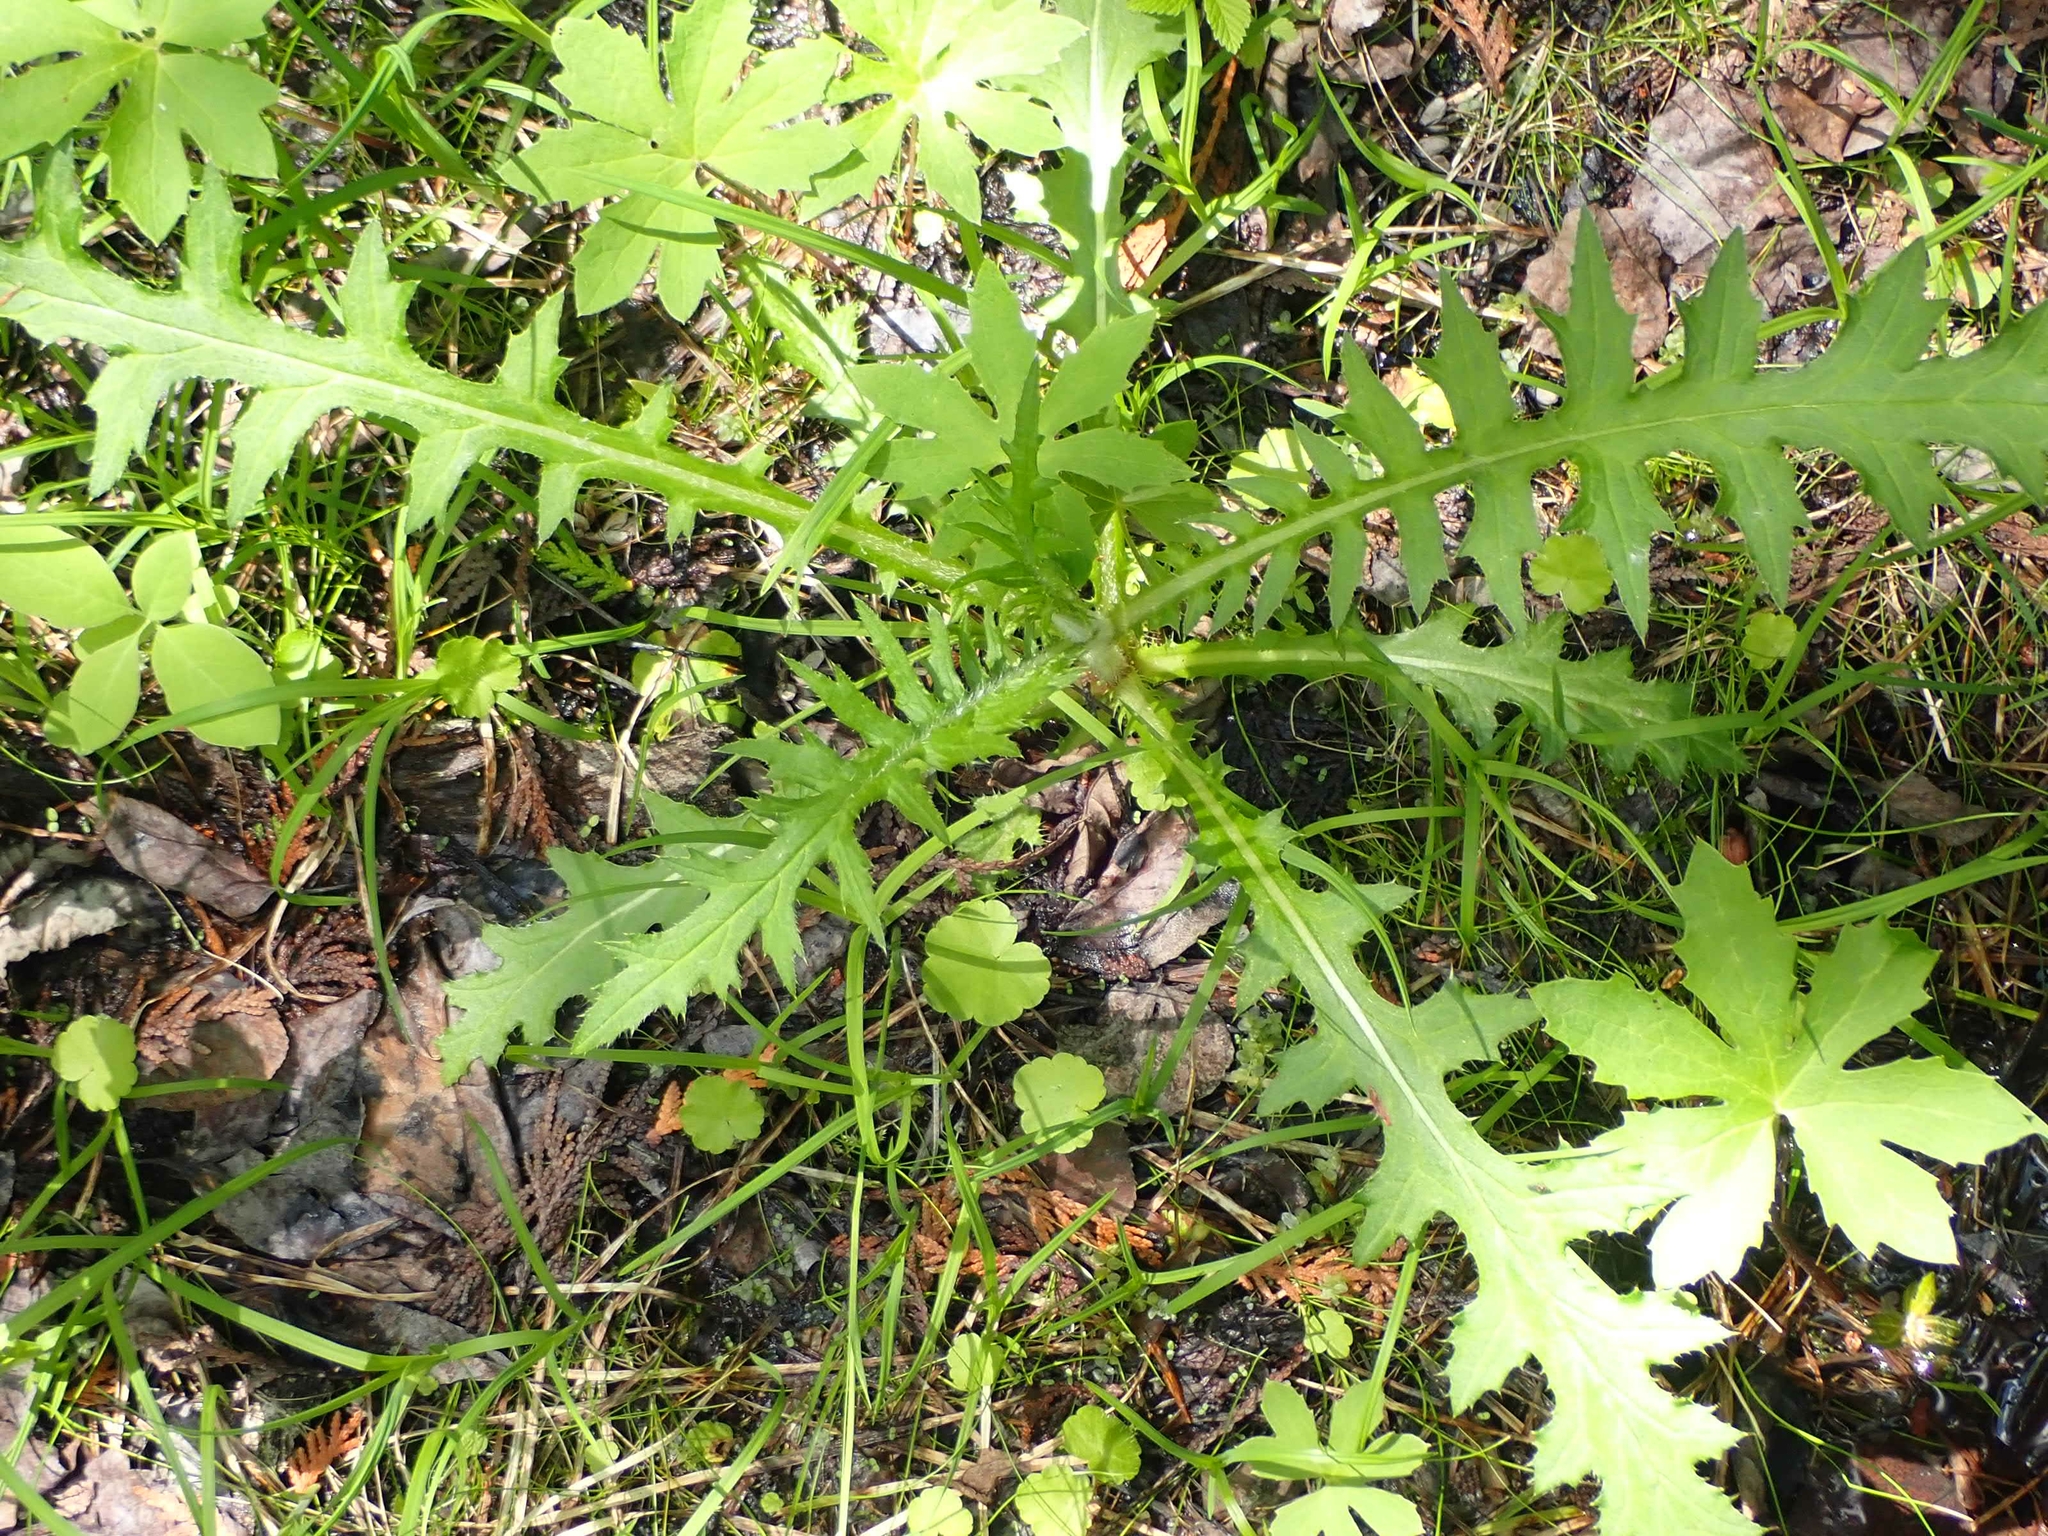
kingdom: Plantae
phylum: Tracheophyta
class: Magnoliopsida
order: Asterales
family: Asteraceae
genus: Cirsium
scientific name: Cirsium muticum
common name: Dunce-nettle
